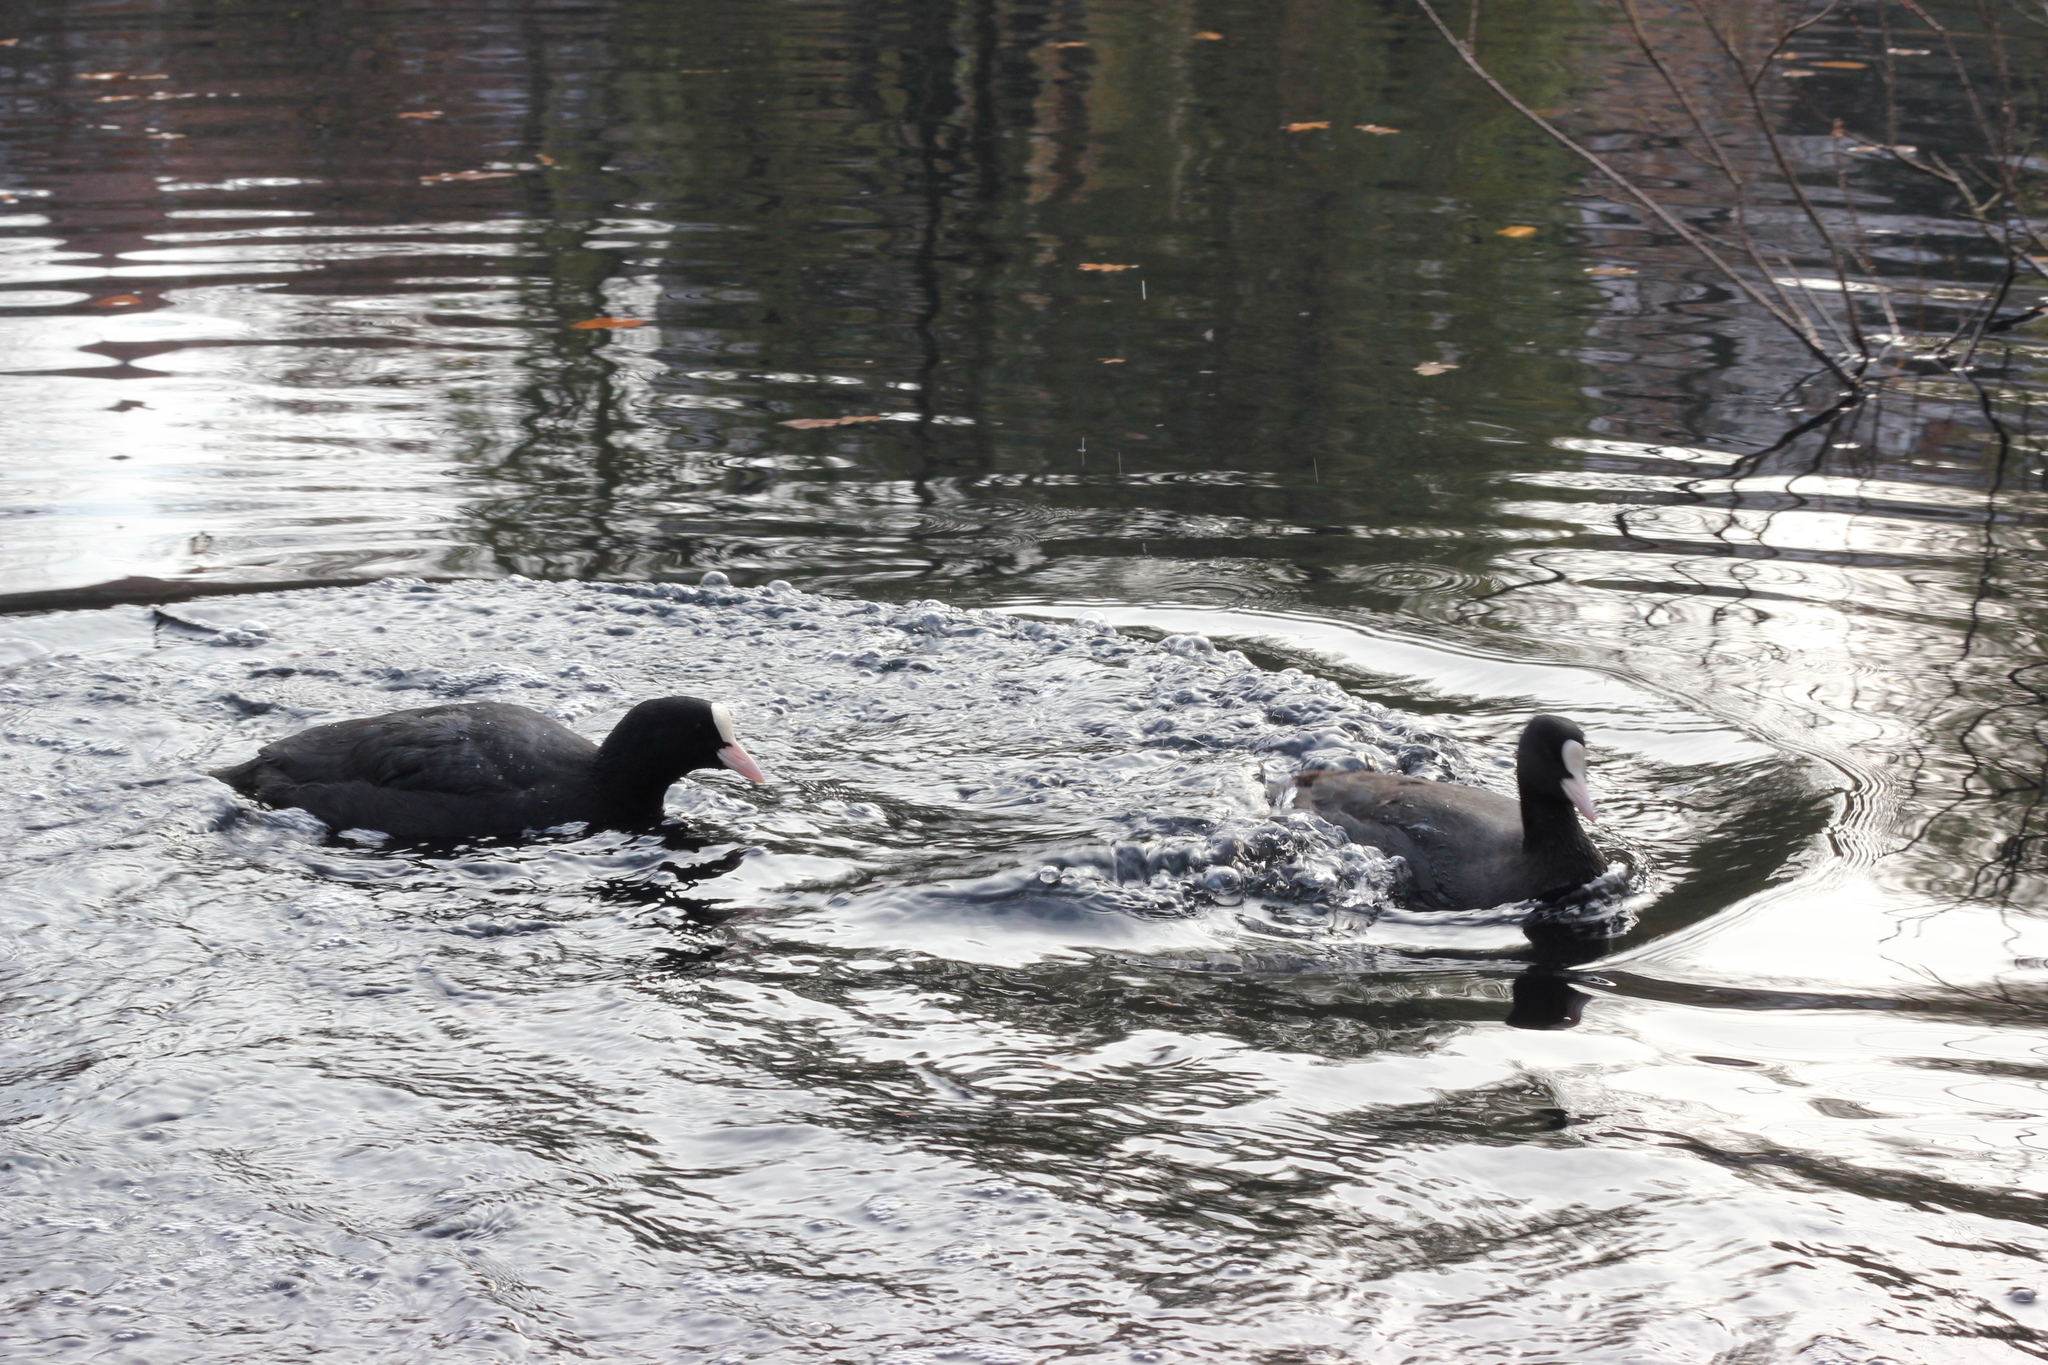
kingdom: Animalia
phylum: Chordata
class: Aves
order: Gruiformes
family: Rallidae
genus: Fulica
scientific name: Fulica atra
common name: Eurasian coot
